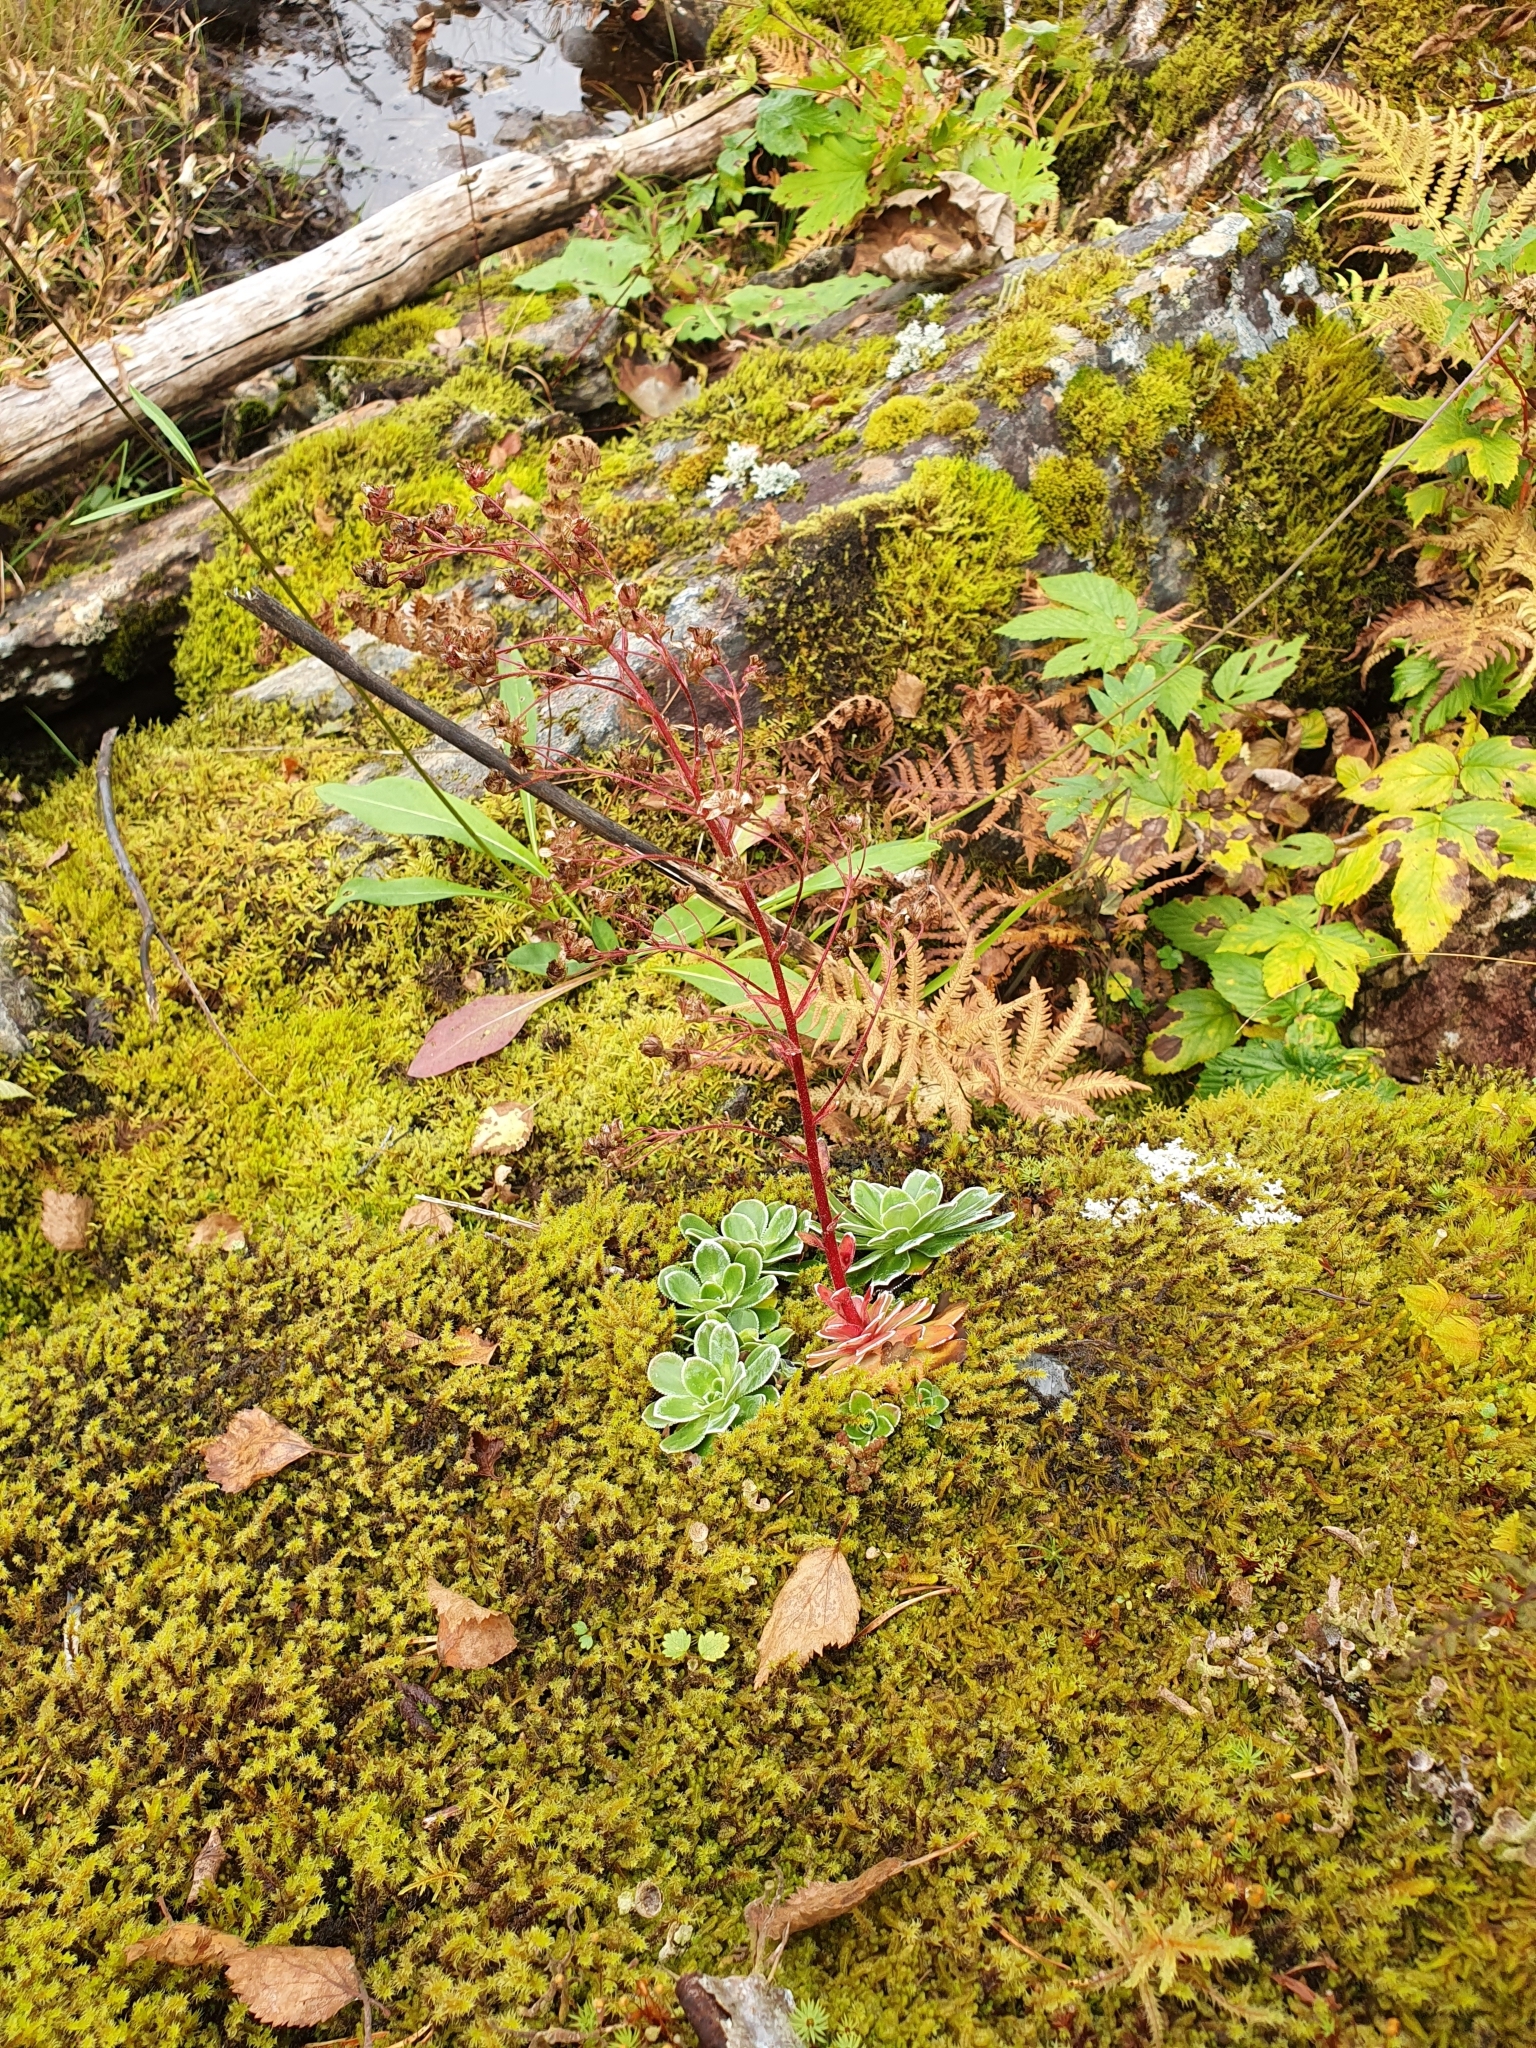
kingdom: Plantae
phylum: Tracheophyta
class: Magnoliopsida
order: Saxifragales
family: Saxifragaceae
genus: Saxifraga
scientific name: Saxifraga cotyledon
